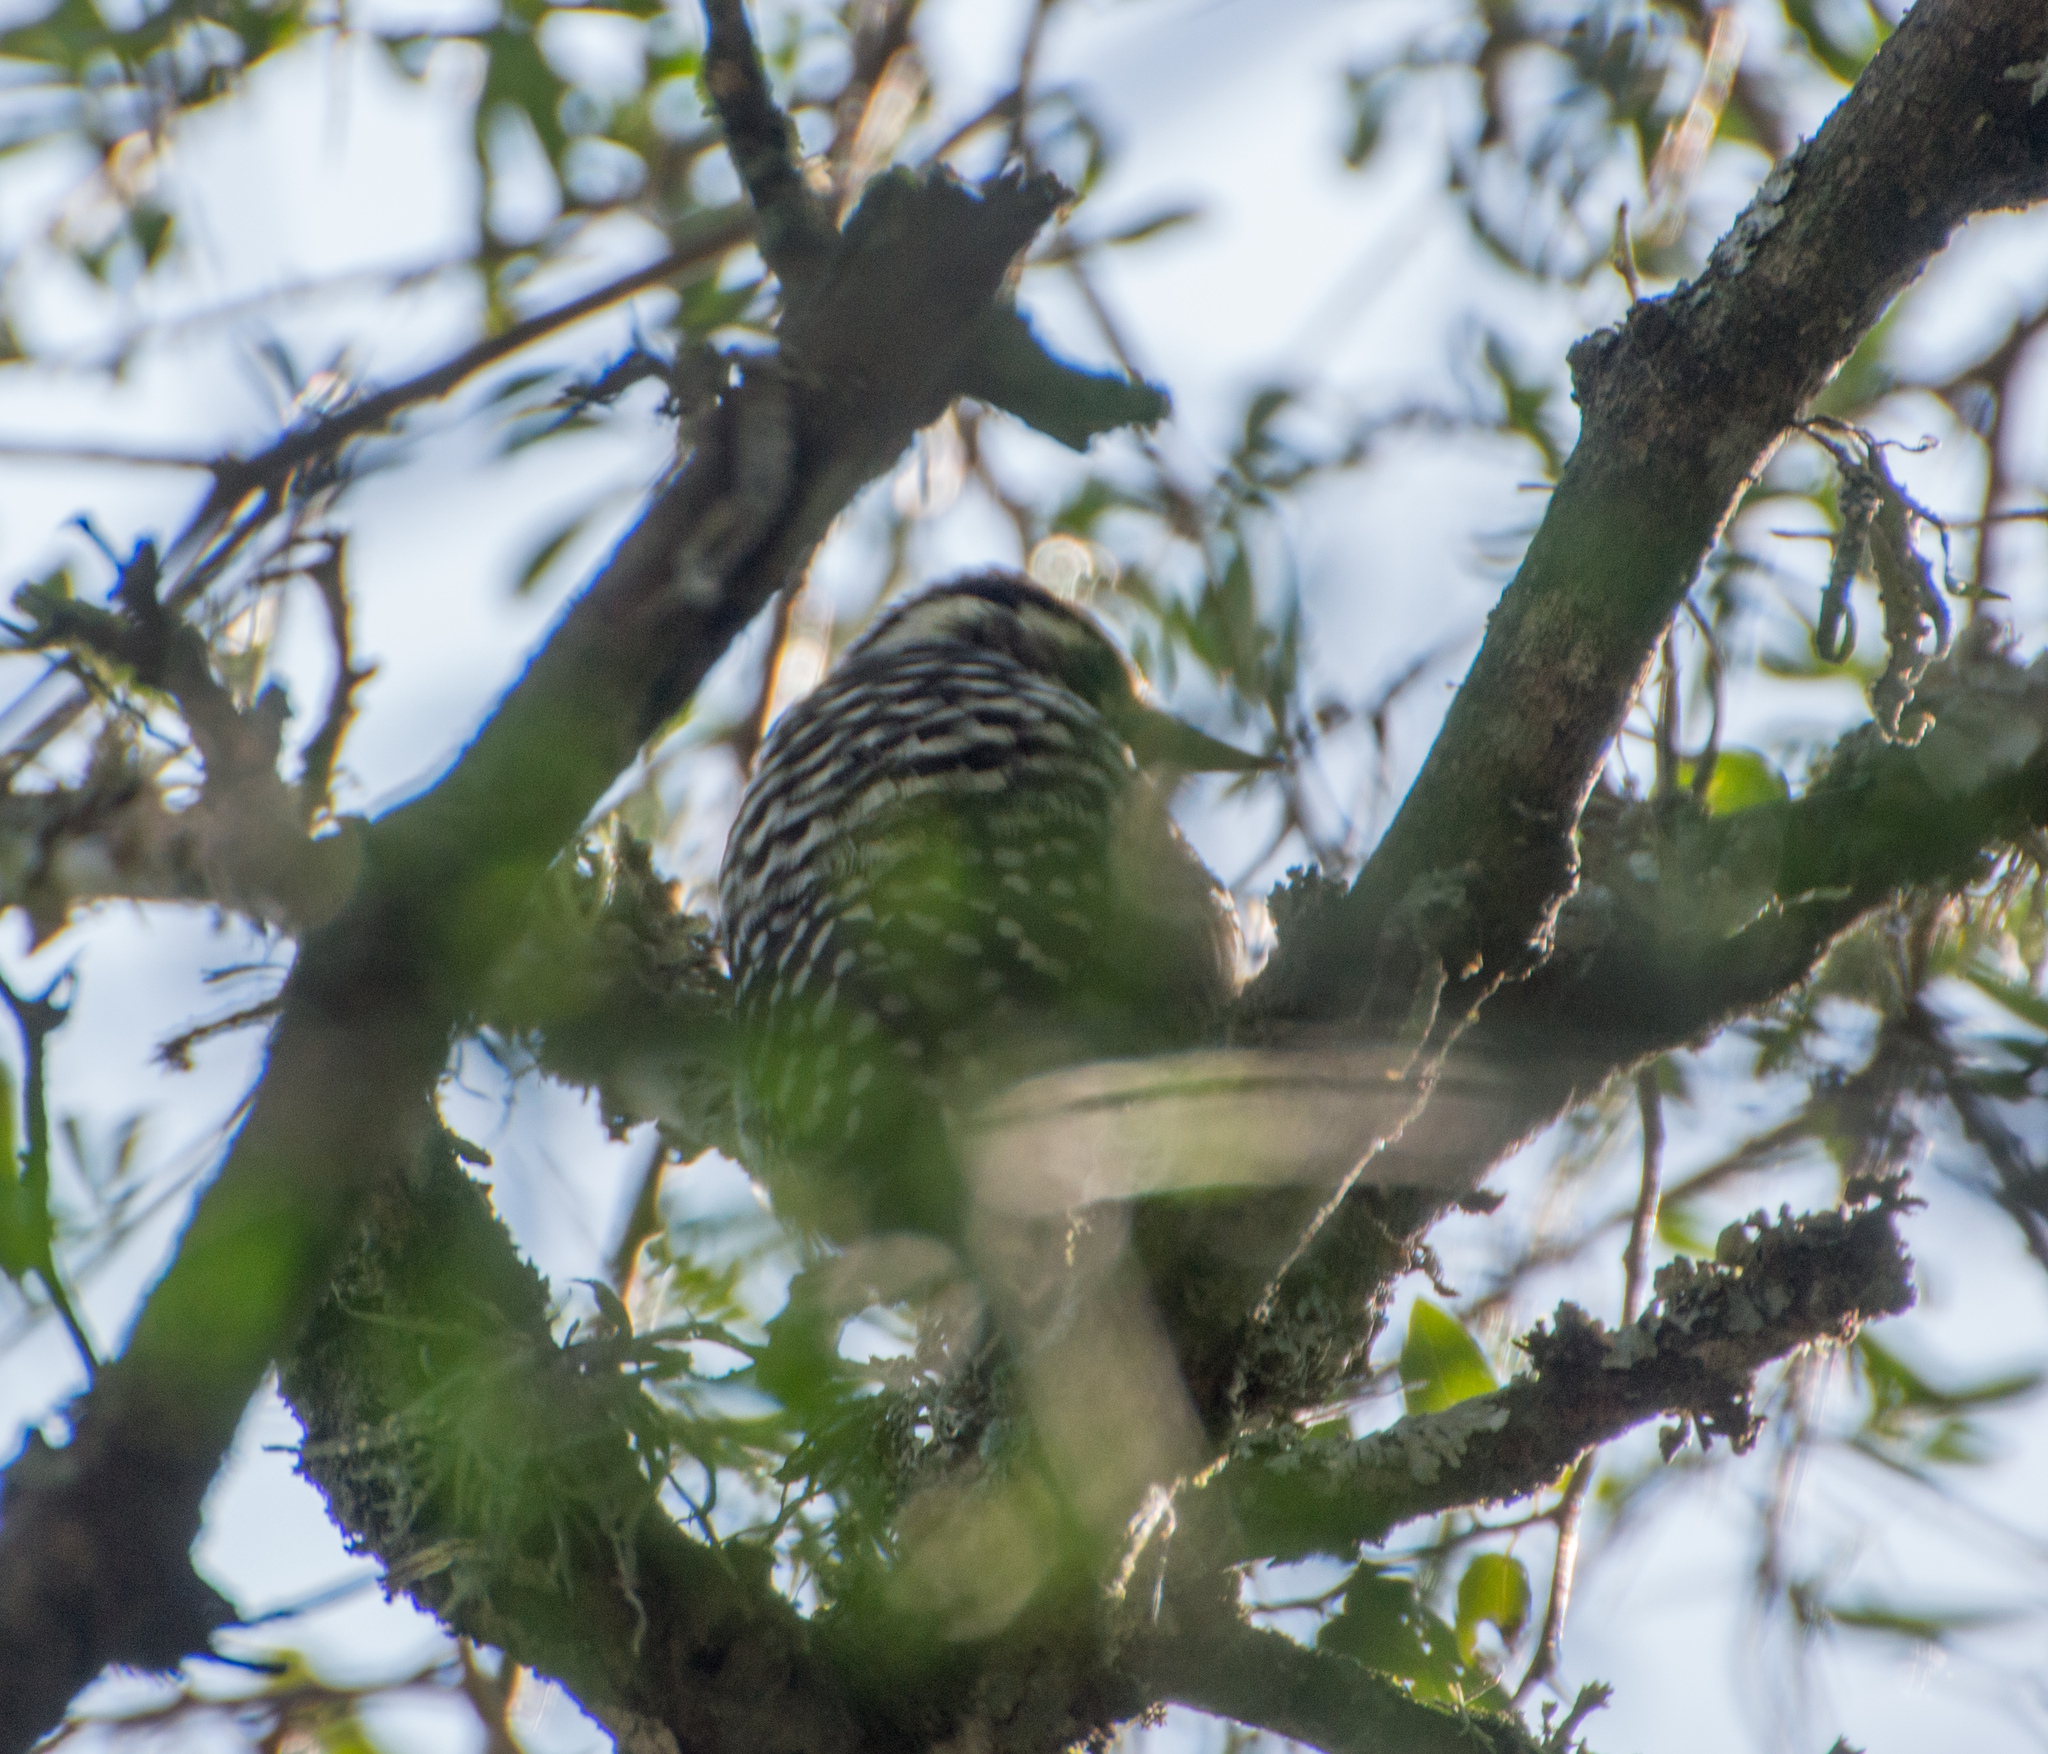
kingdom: Animalia
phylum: Chordata
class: Aves
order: Piciformes
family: Picidae
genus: Veniliornis
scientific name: Veniliornis mixtus
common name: Checkered woodpecker
